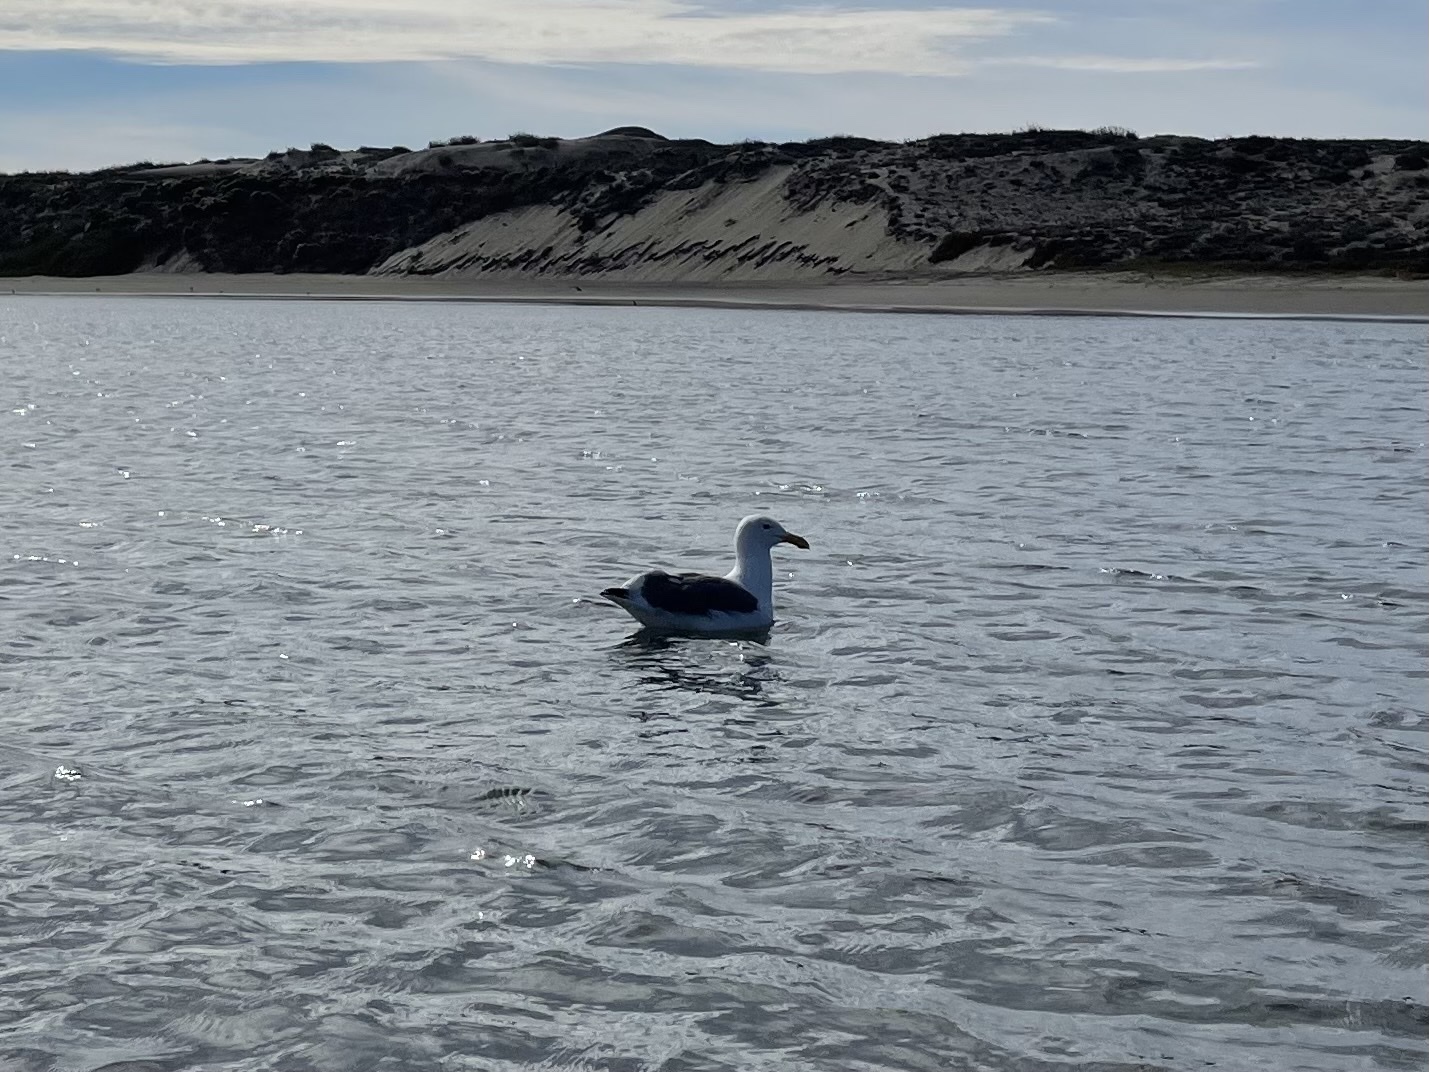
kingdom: Animalia
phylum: Chordata
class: Aves
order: Charadriiformes
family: Laridae
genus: Larus
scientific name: Larus occidentalis
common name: Western gull
